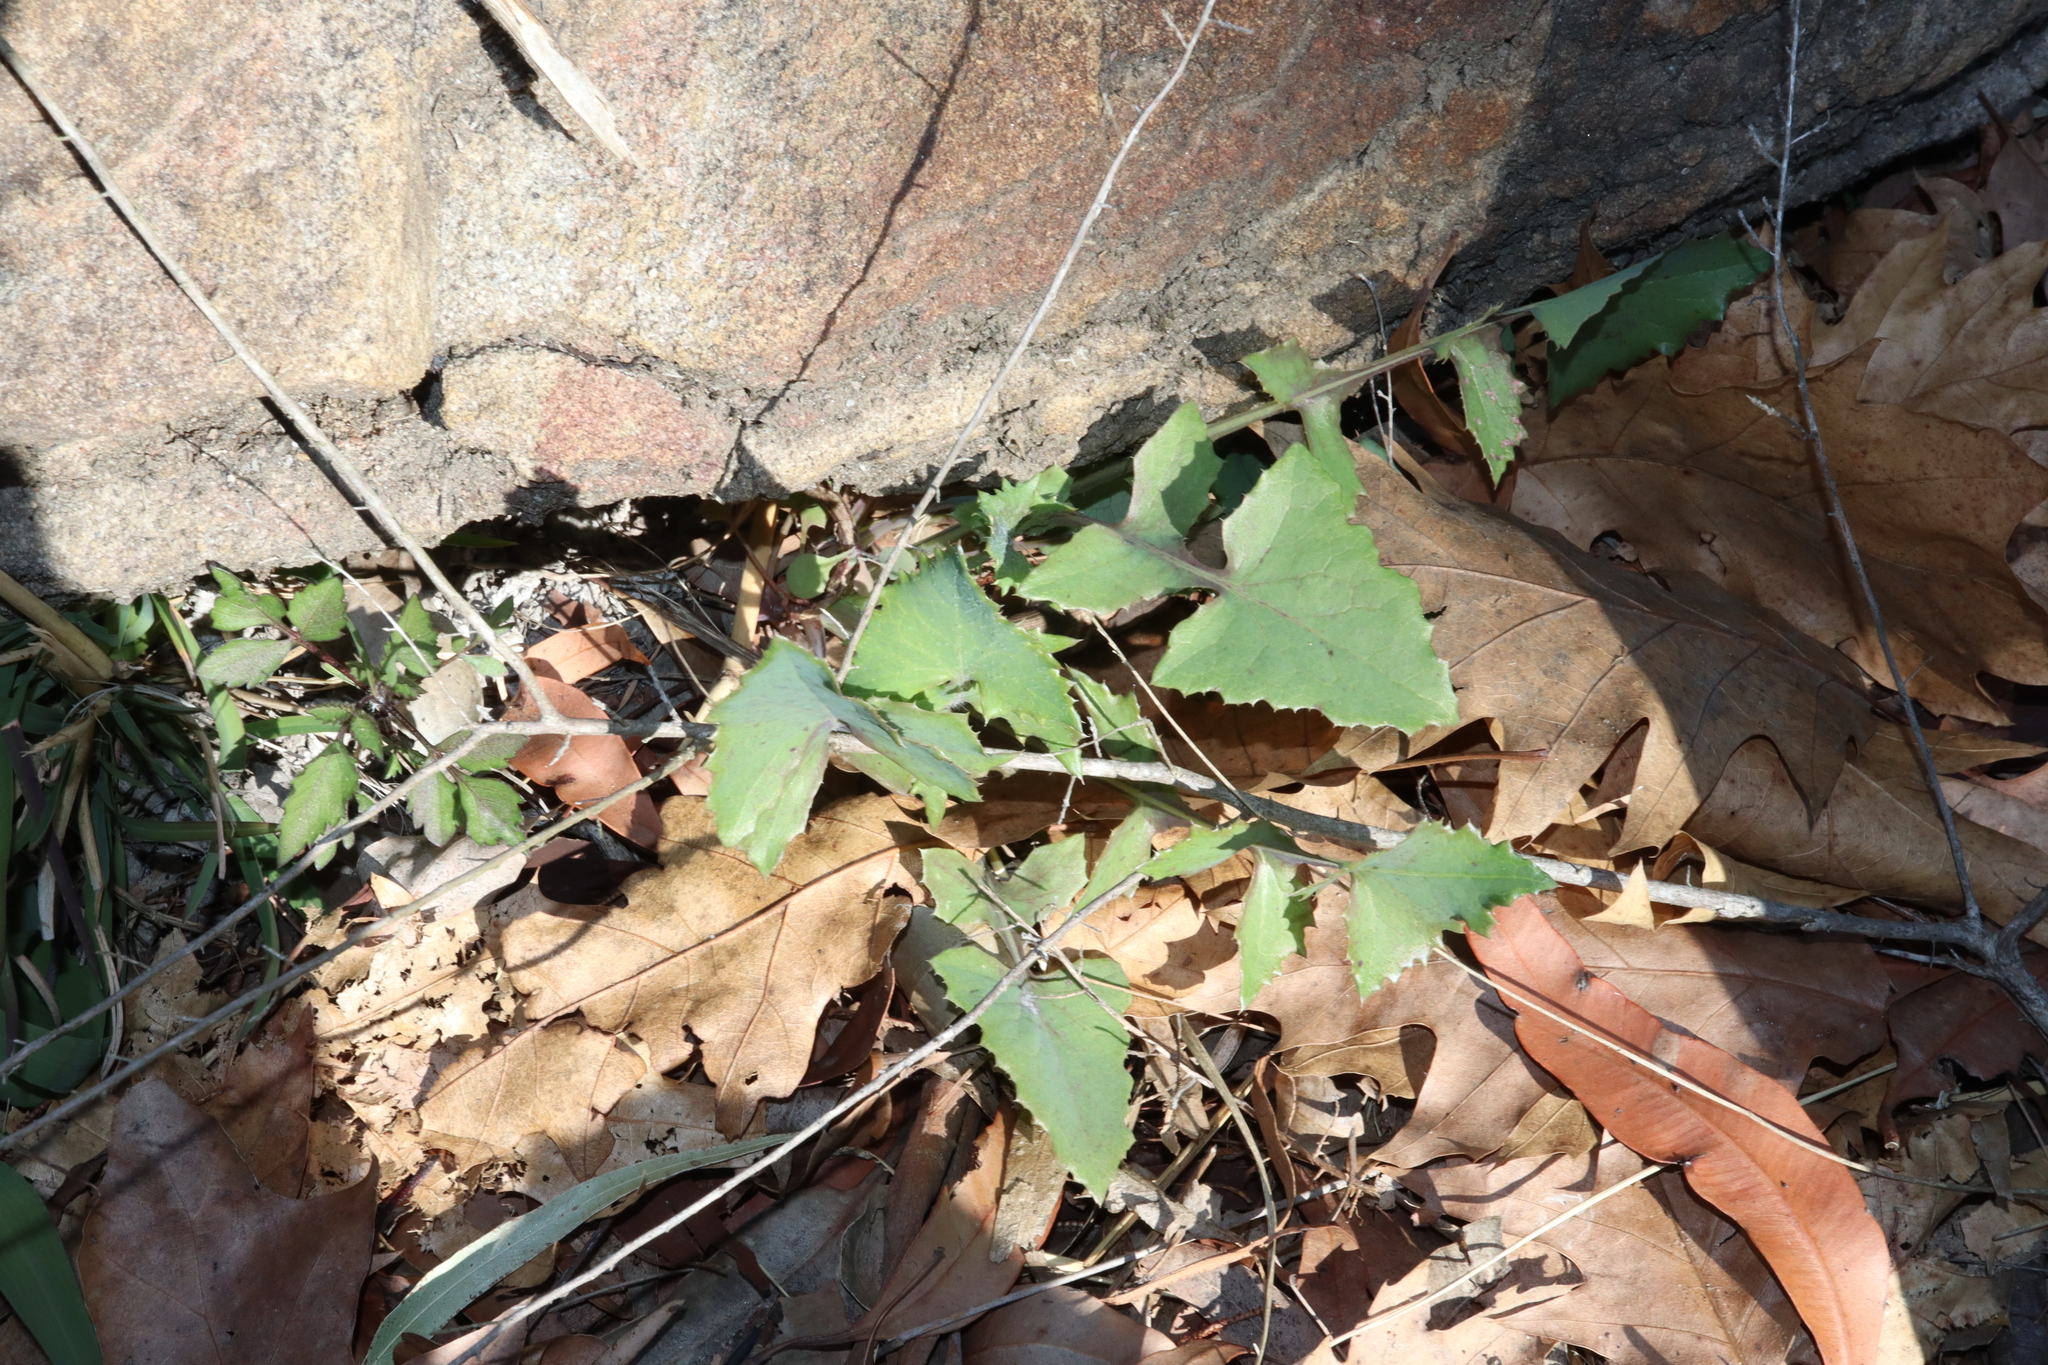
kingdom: Plantae
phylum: Tracheophyta
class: Magnoliopsida
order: Asterales
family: Asteraceae
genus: Sonchus
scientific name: Sonchus oleraceus
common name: Common sowthistle
